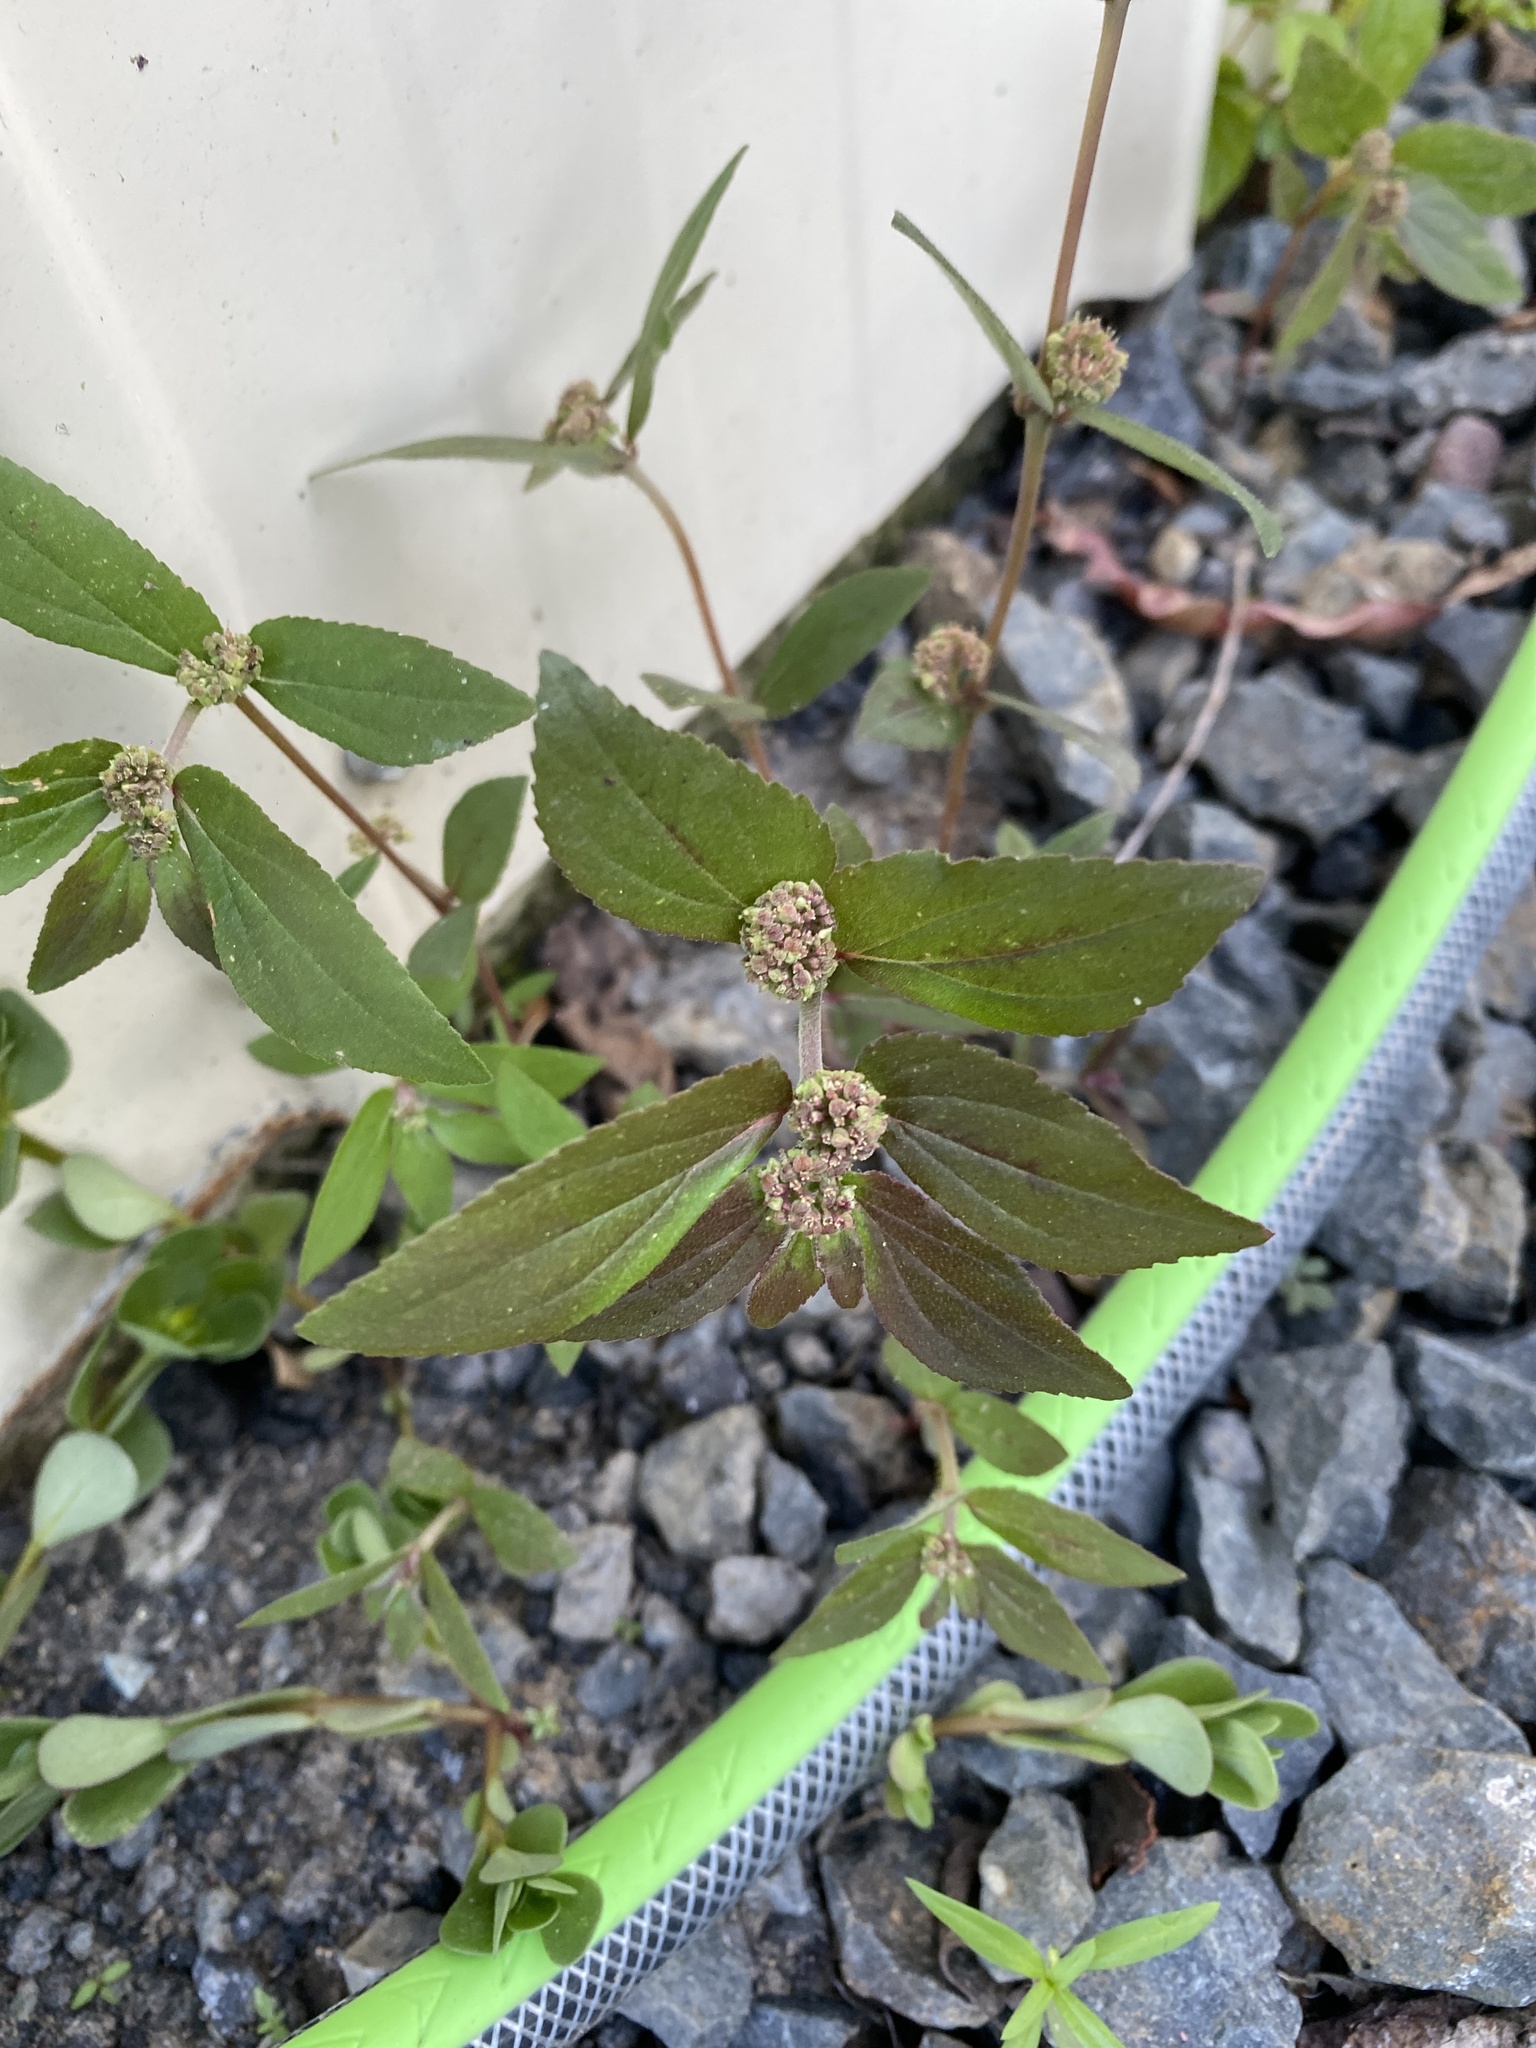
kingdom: Plantae
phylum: Tracheophyta
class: Magnoliopsida
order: Malpighiales
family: Euphorbiaceae
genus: Euphorbia
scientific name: Euphorbia hirta
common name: Pillpod sandmat
